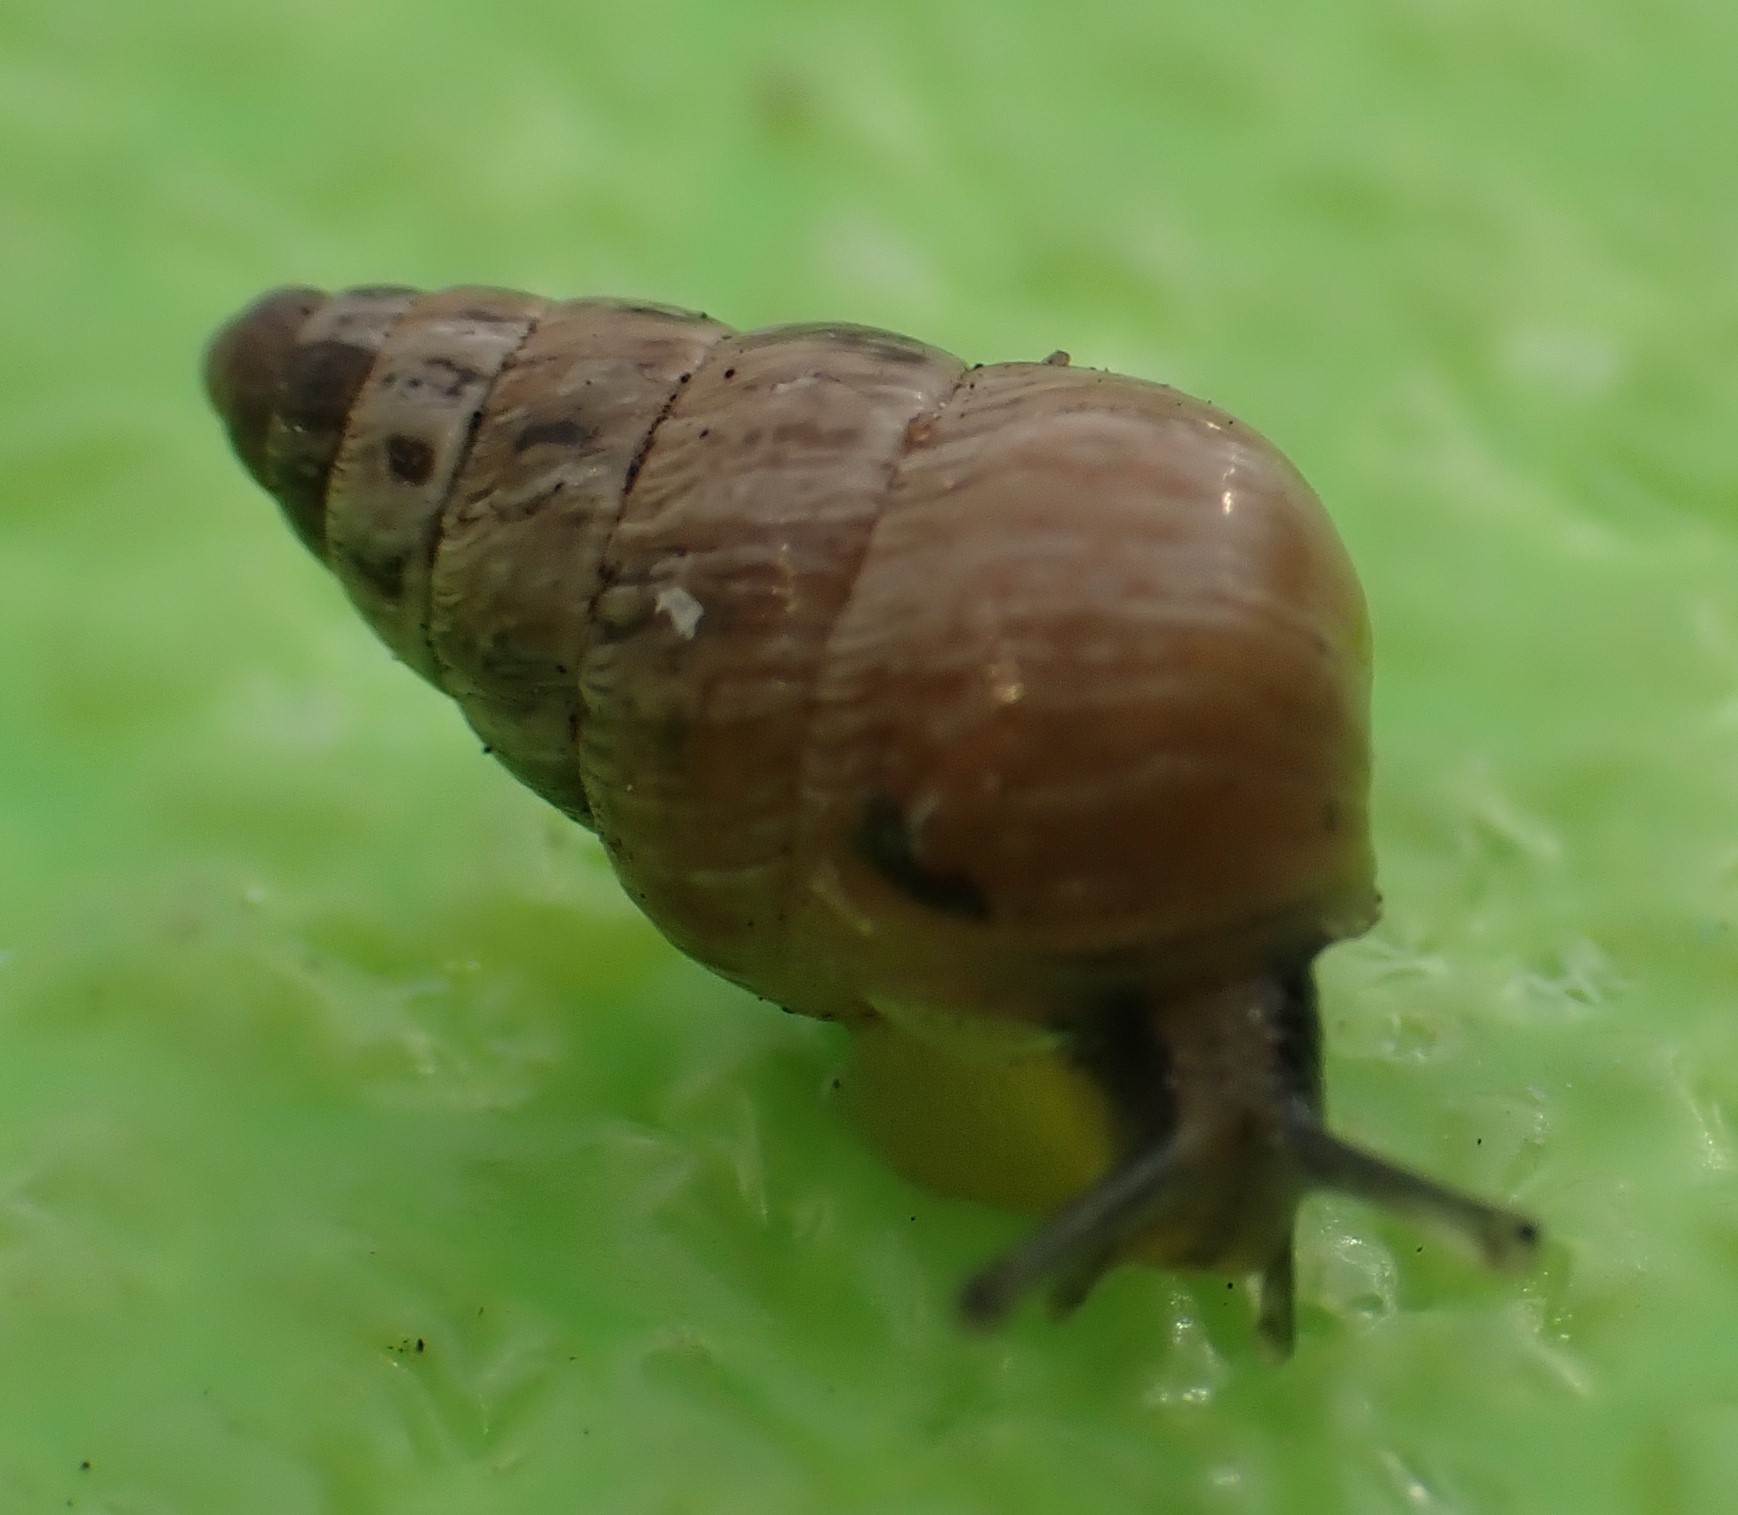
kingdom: Animalia
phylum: Mollusca
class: Gastropoda
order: Stylommatophora
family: Geomitridae
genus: Cochlicella
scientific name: Cochlicella barbara
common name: Potbellied helicellid
